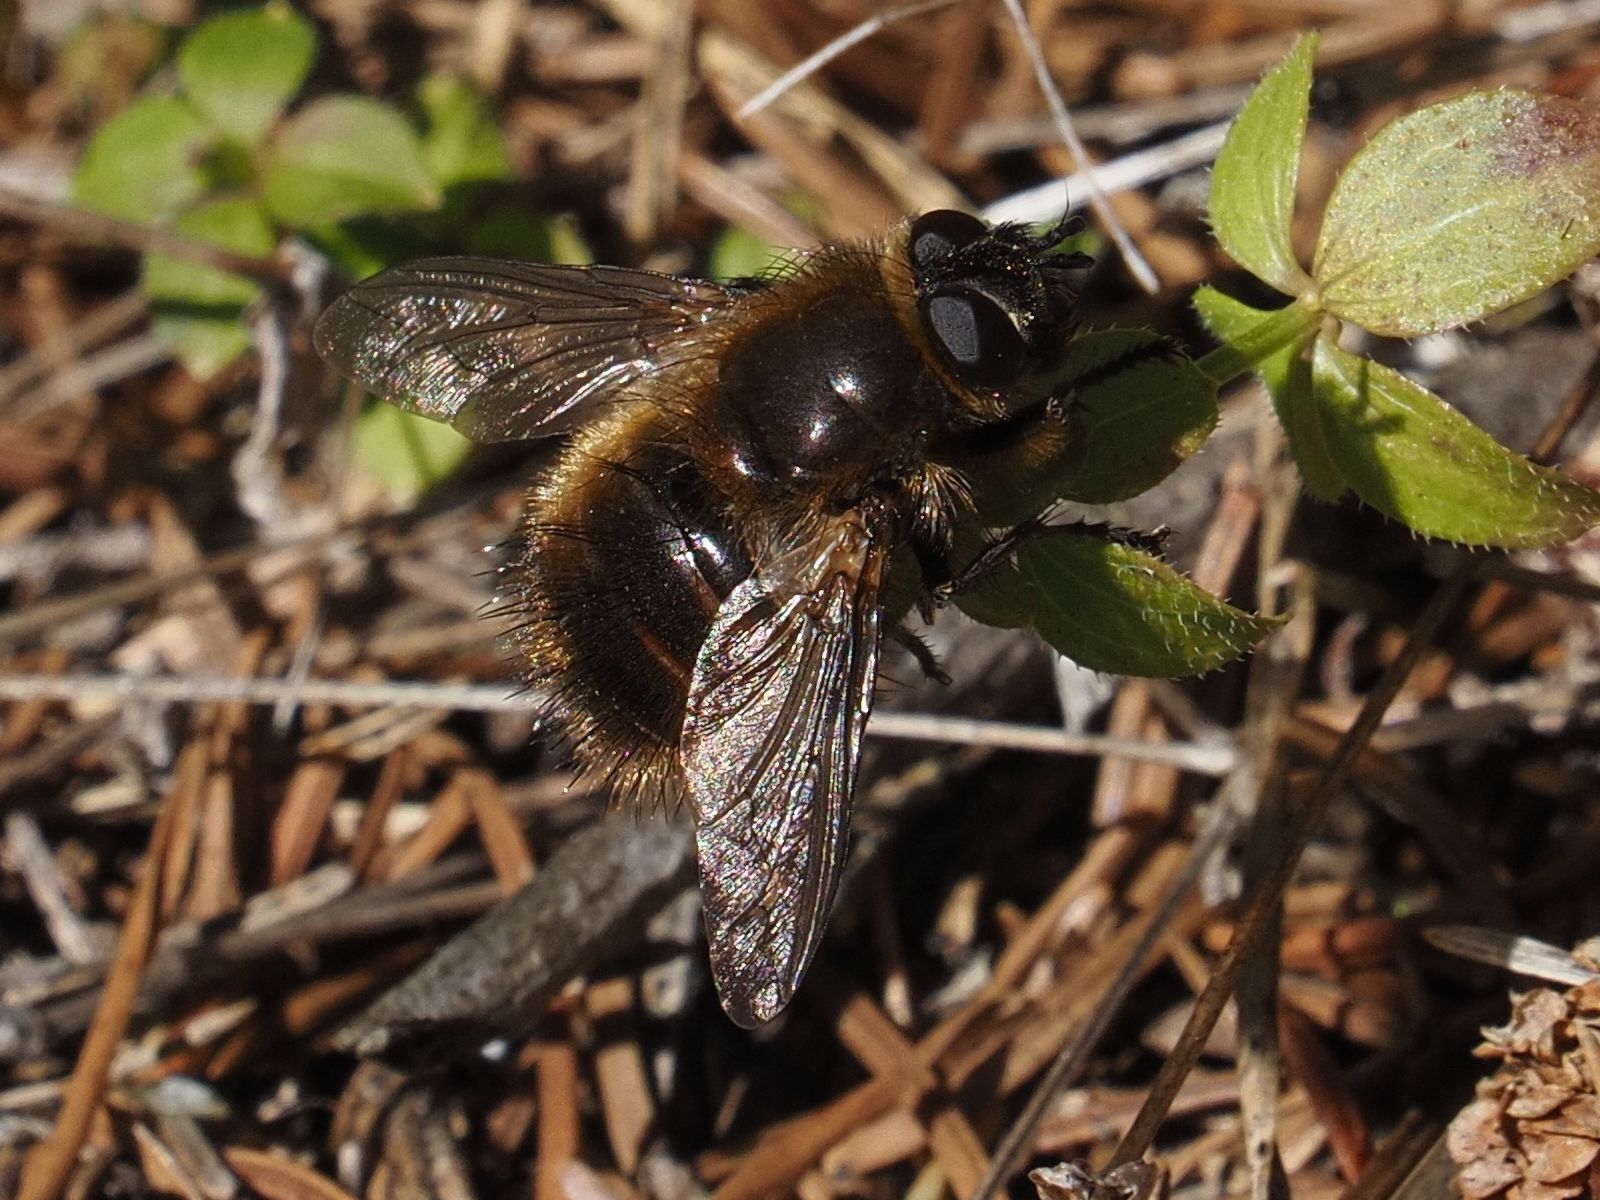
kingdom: Animalia
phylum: Arthropoda
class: Insecta
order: Diptera
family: Tachinidae
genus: Tachina
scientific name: Tachina ursina
